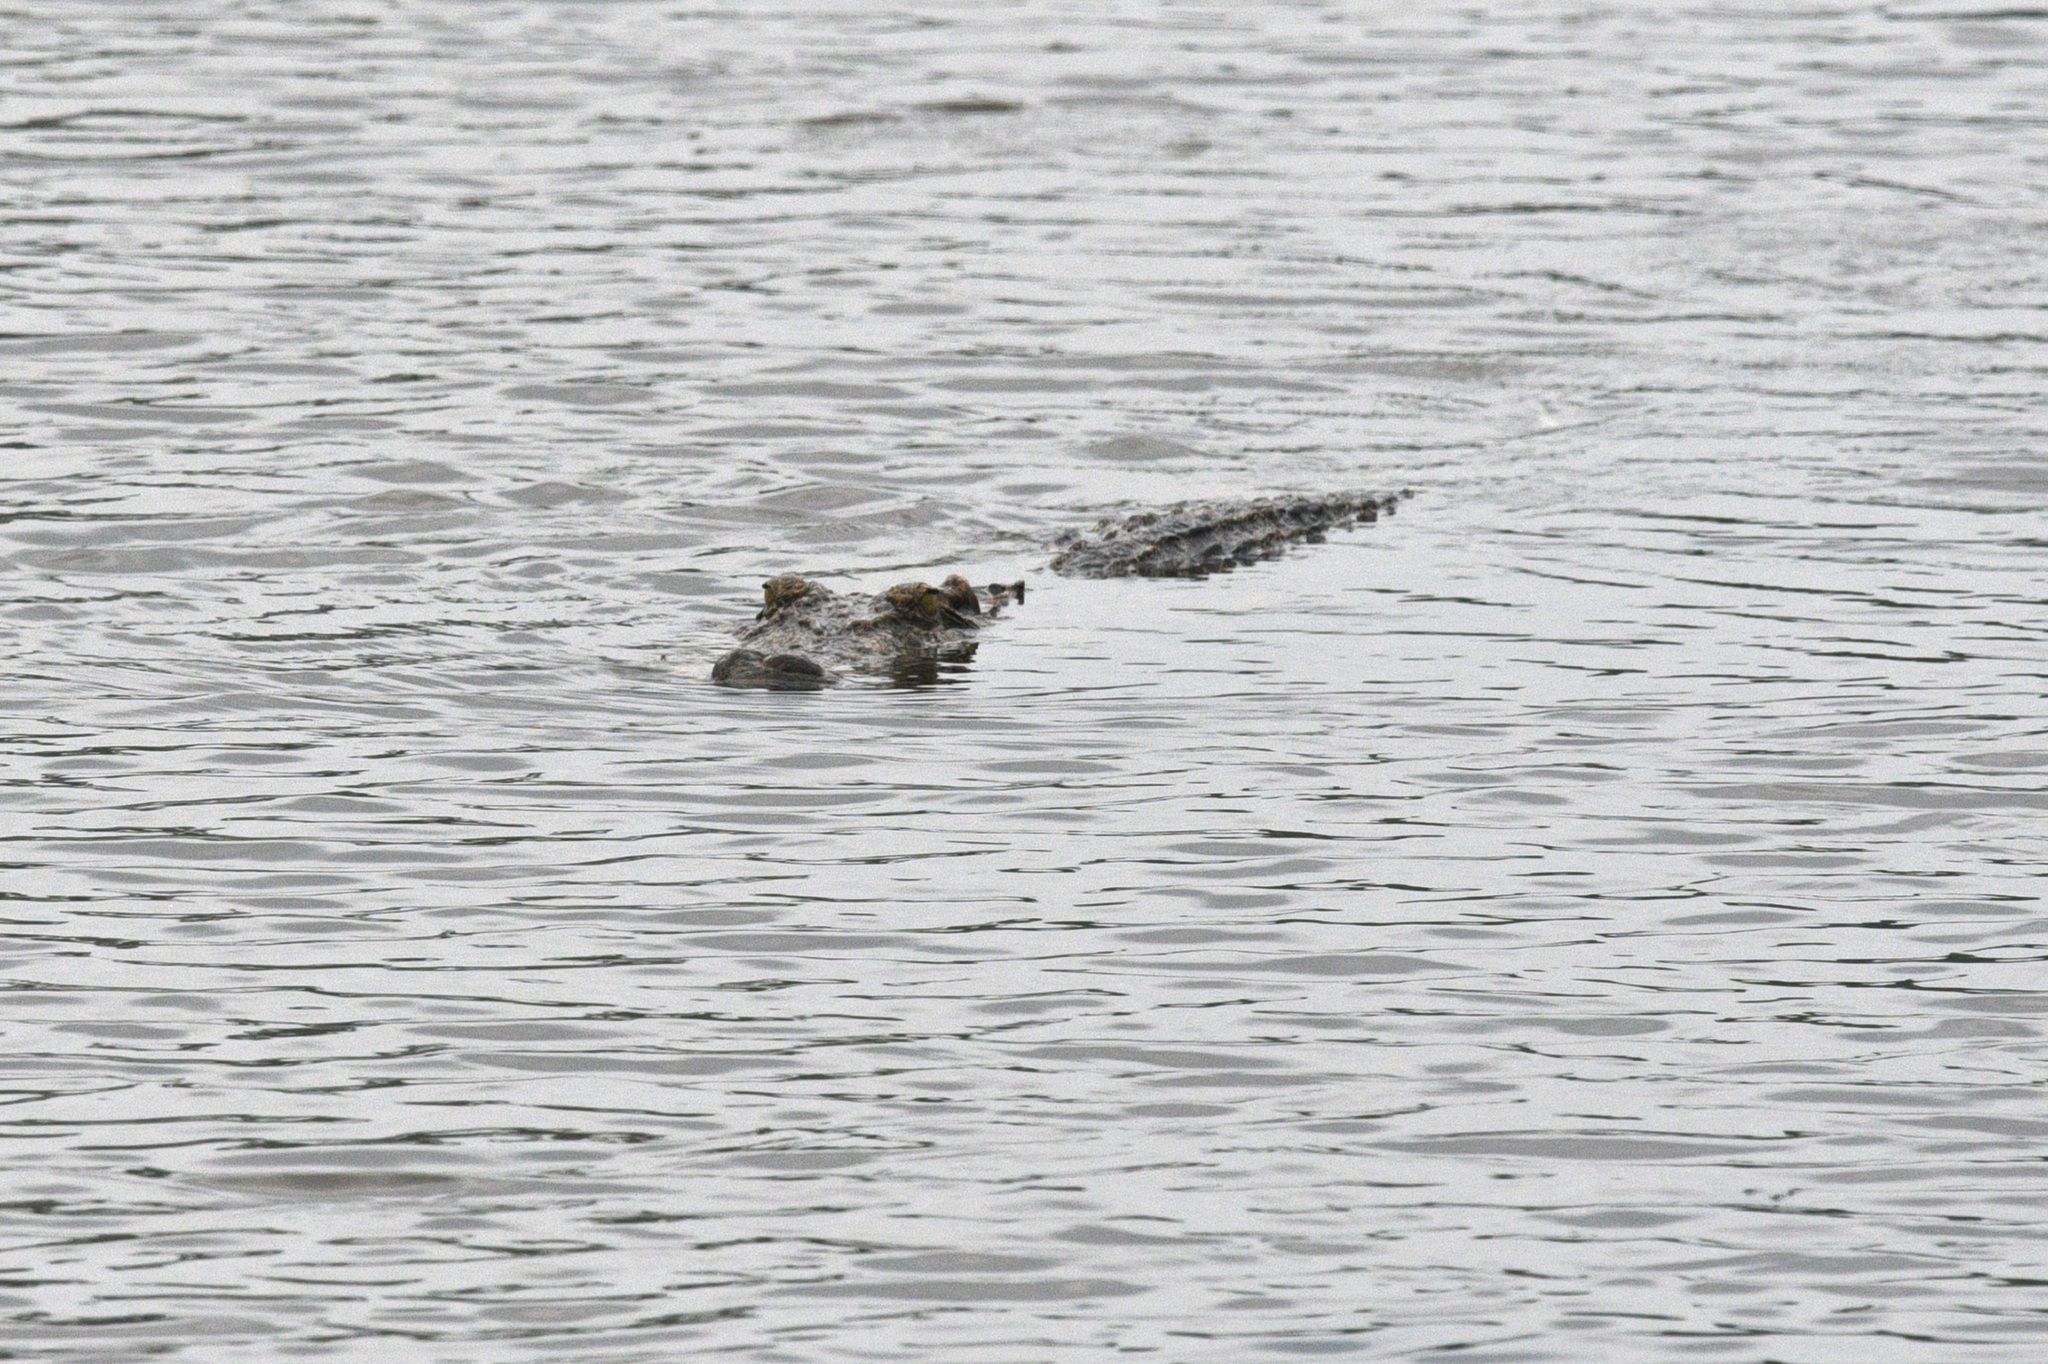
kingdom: Animalia
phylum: Chordata
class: Crocodylia
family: Crocodylidae
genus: Crocodylus
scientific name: Crocodylus siamensis
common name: Siamese crocodile
